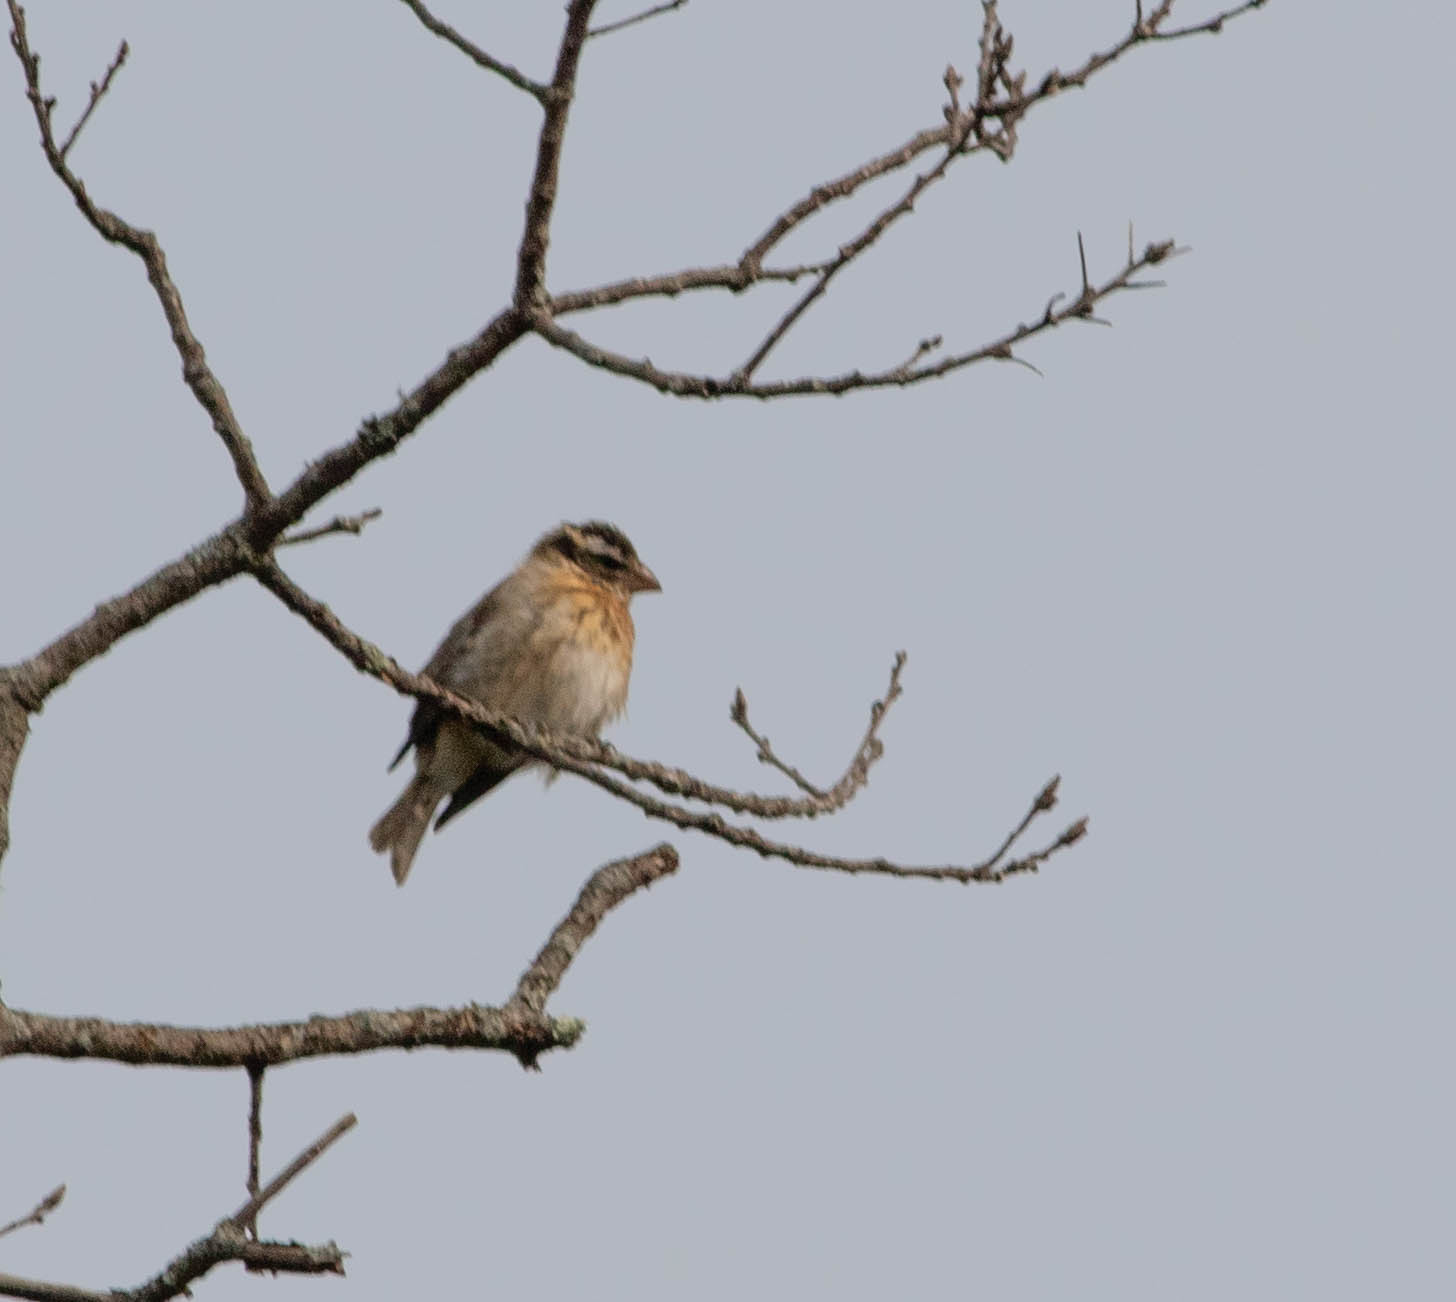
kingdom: Animalia
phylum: Chordata
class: Aves
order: Passeriformes
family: Cardinalidae
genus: Pheucticus
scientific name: Pheucticus ludovicianus
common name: Rose-breasted grosbeak
